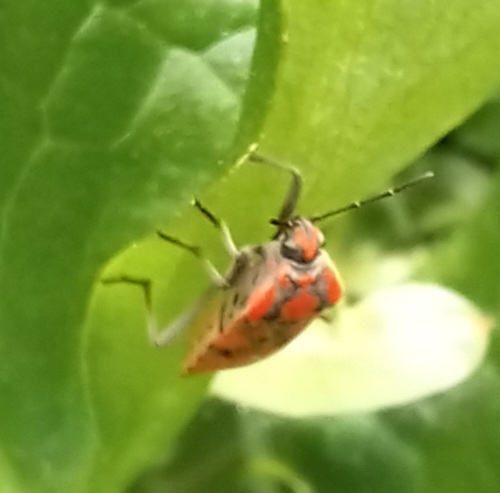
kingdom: Animalia
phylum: Arthropoda
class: Insecta
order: Hemiptera
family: Lygaeidae
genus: Spilostethus
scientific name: Spilostethus pandurus
